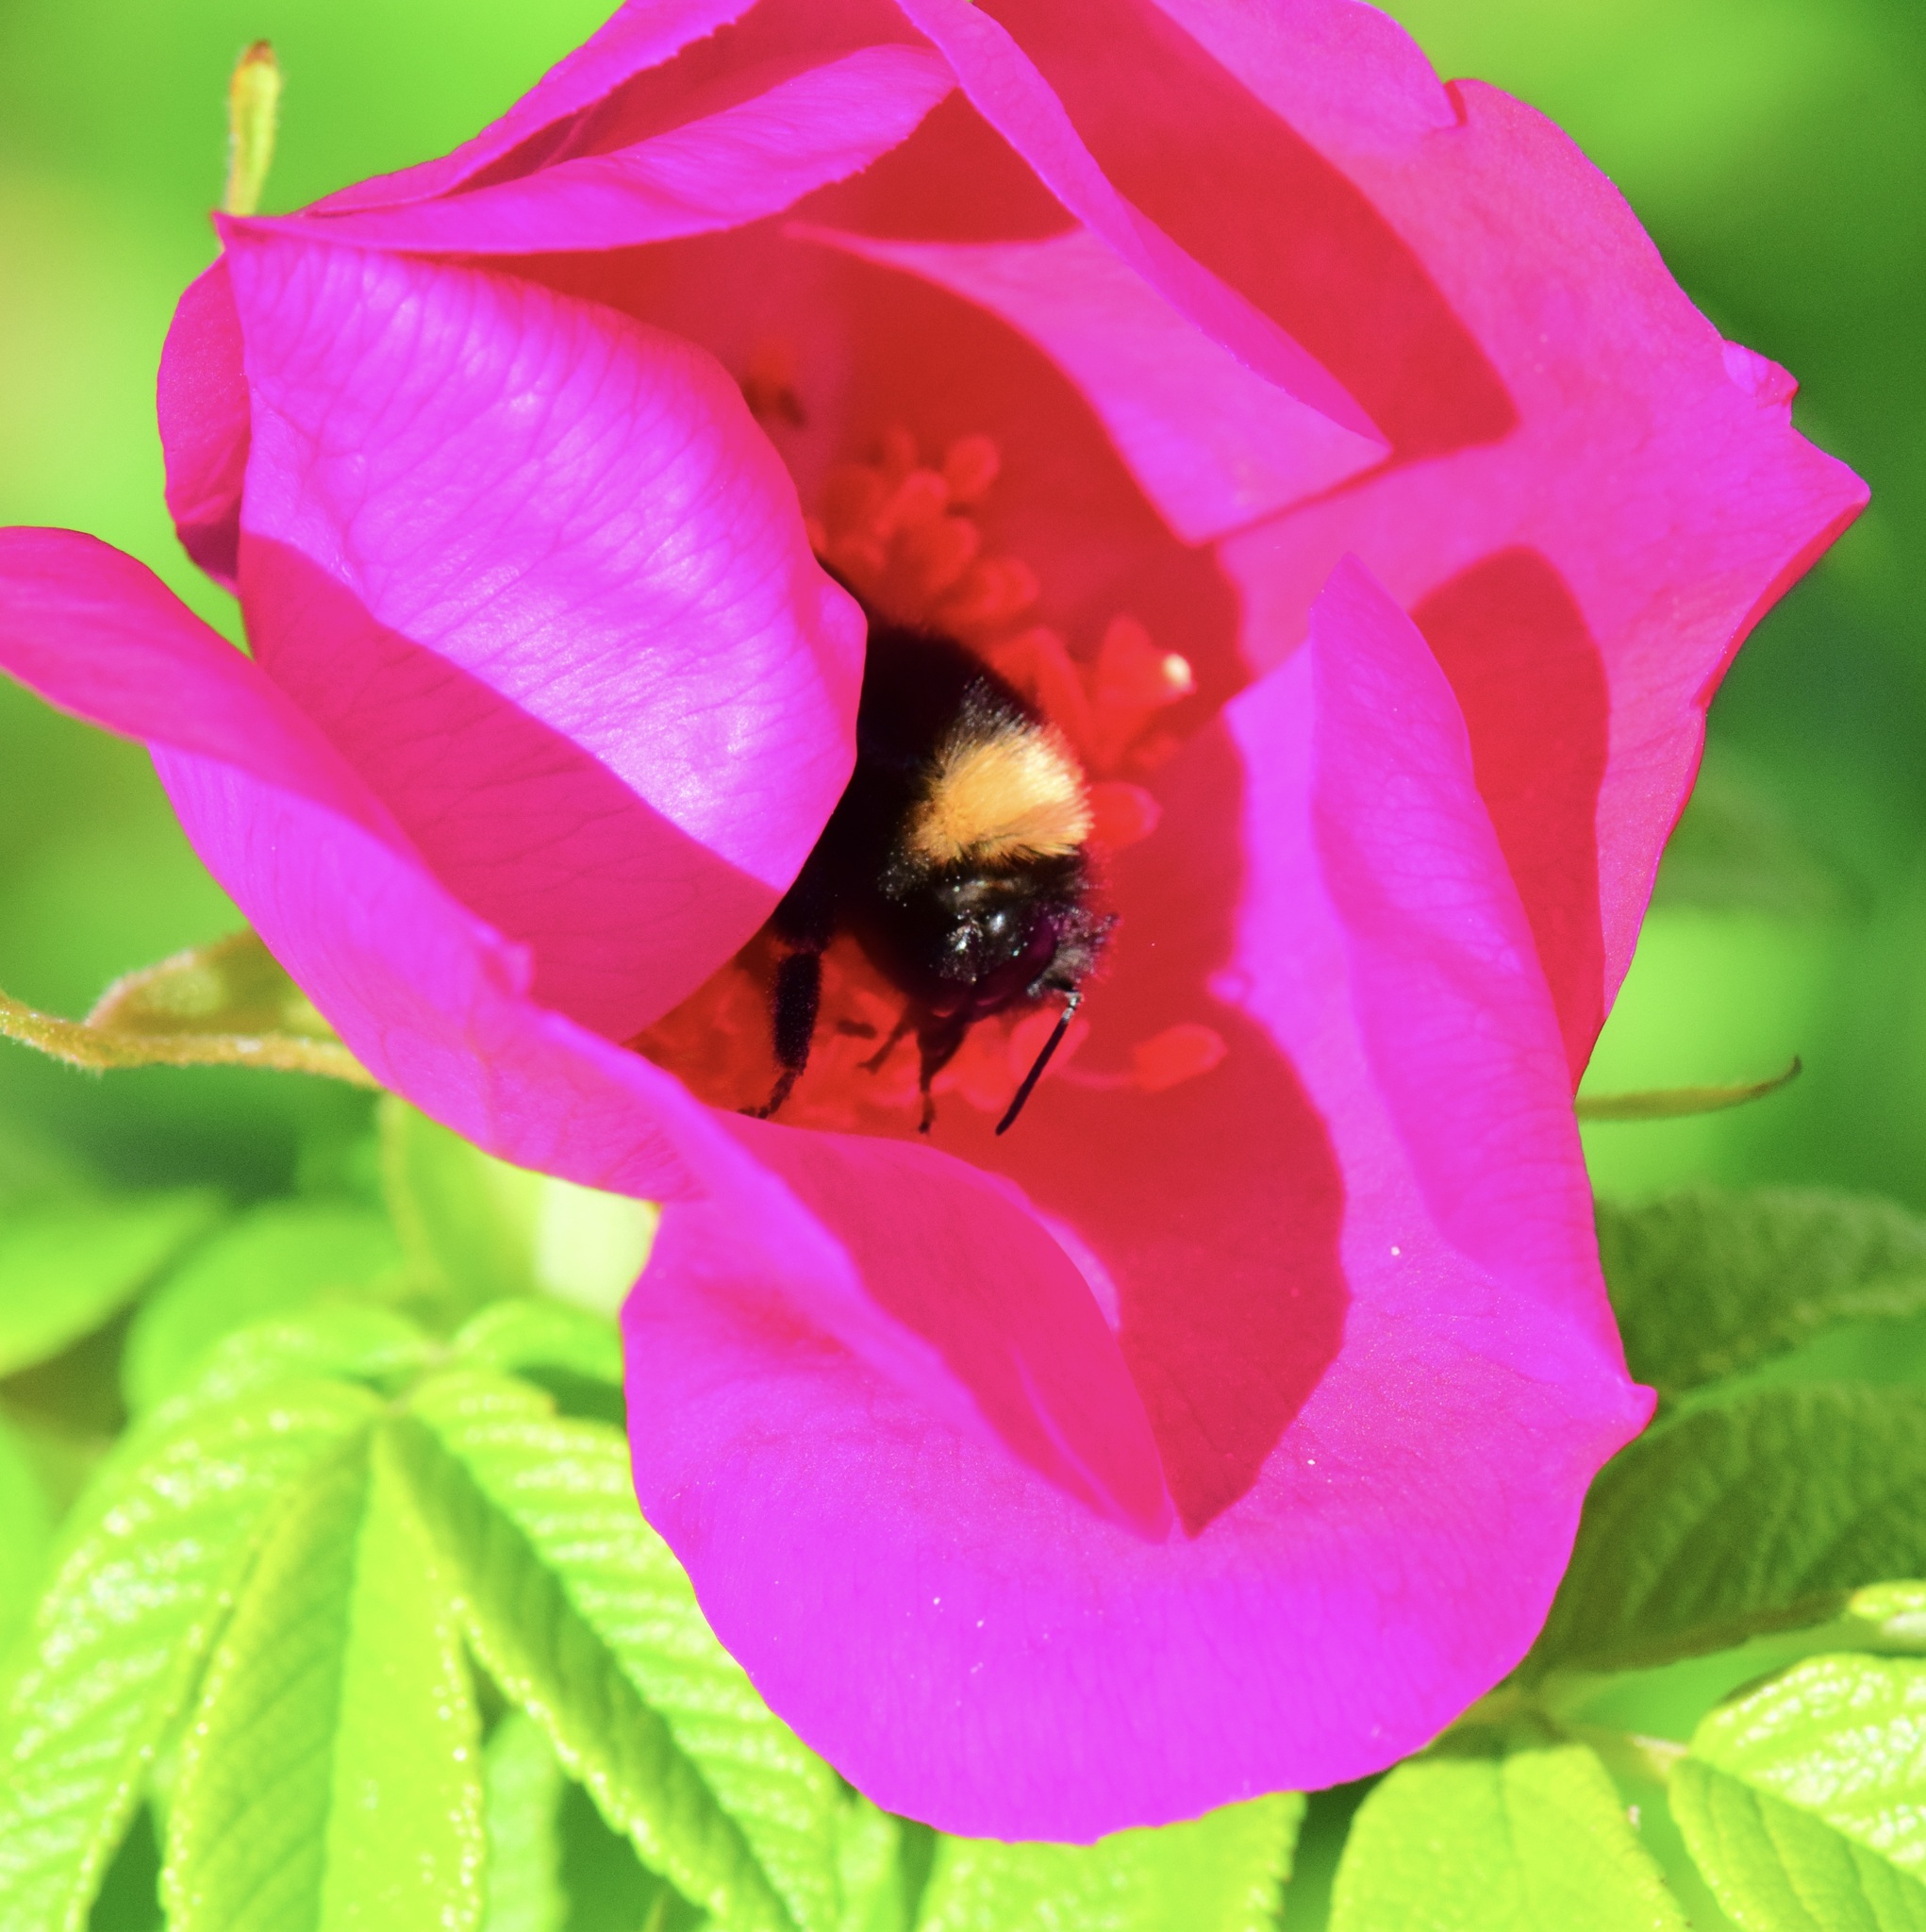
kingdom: Animalia
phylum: Arthropoda
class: Insecta
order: Hymenoptera
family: Apidae
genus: Bombus
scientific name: Bombus terricola
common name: Yellow-banded bumble bee
